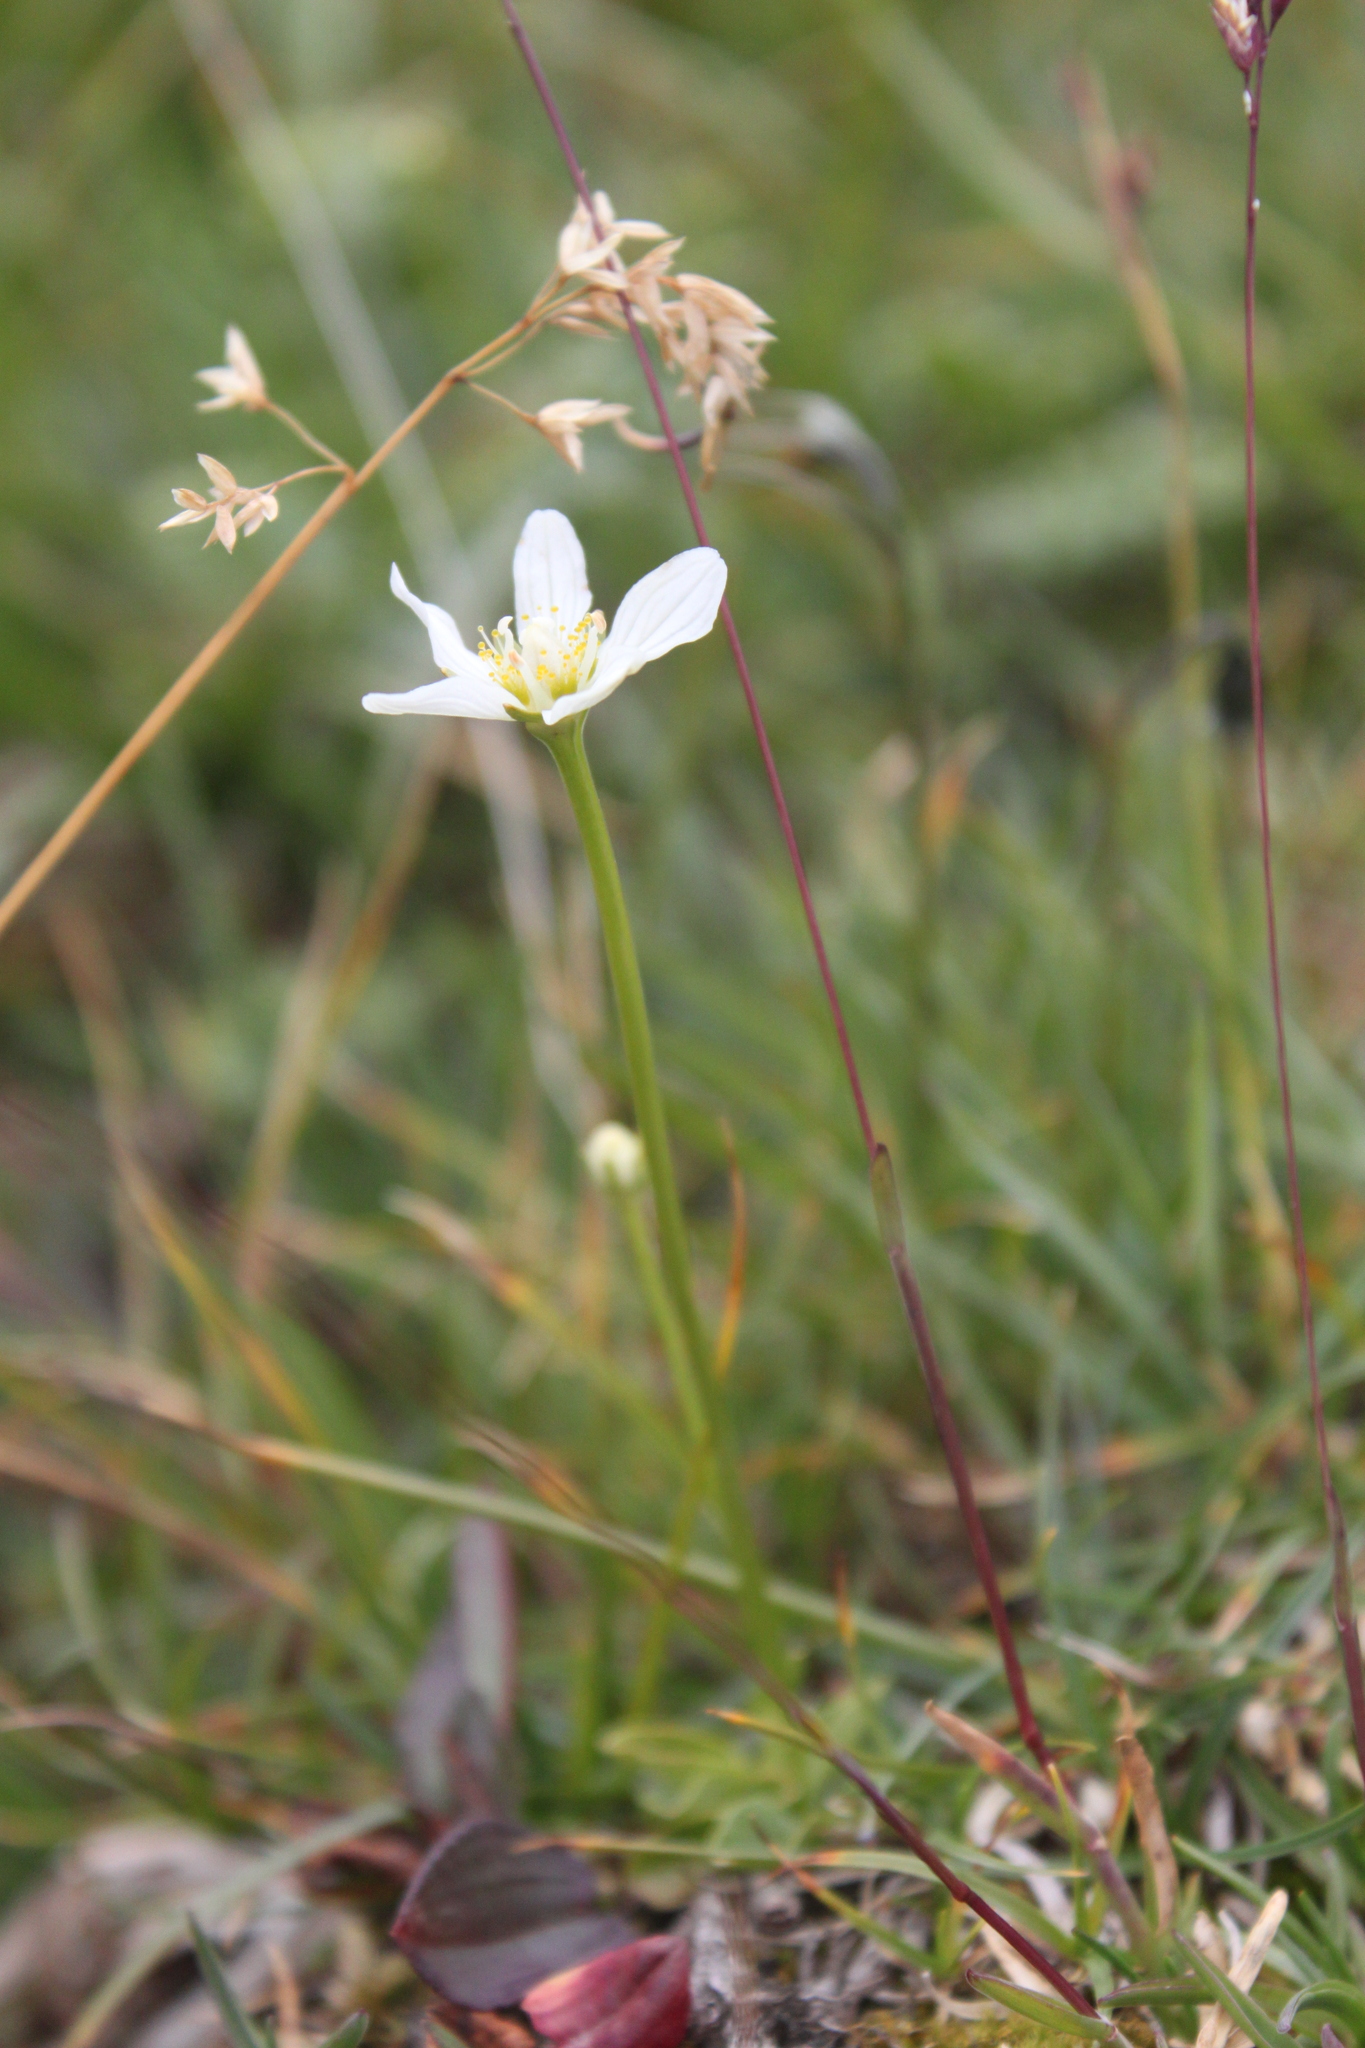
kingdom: Plantae
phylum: Tracheophyta
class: Magnoliopsida
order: Celastrales
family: Parnassiaceae
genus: Parnassia
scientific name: Parnassia palustris
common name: Grass-of-parnassus
